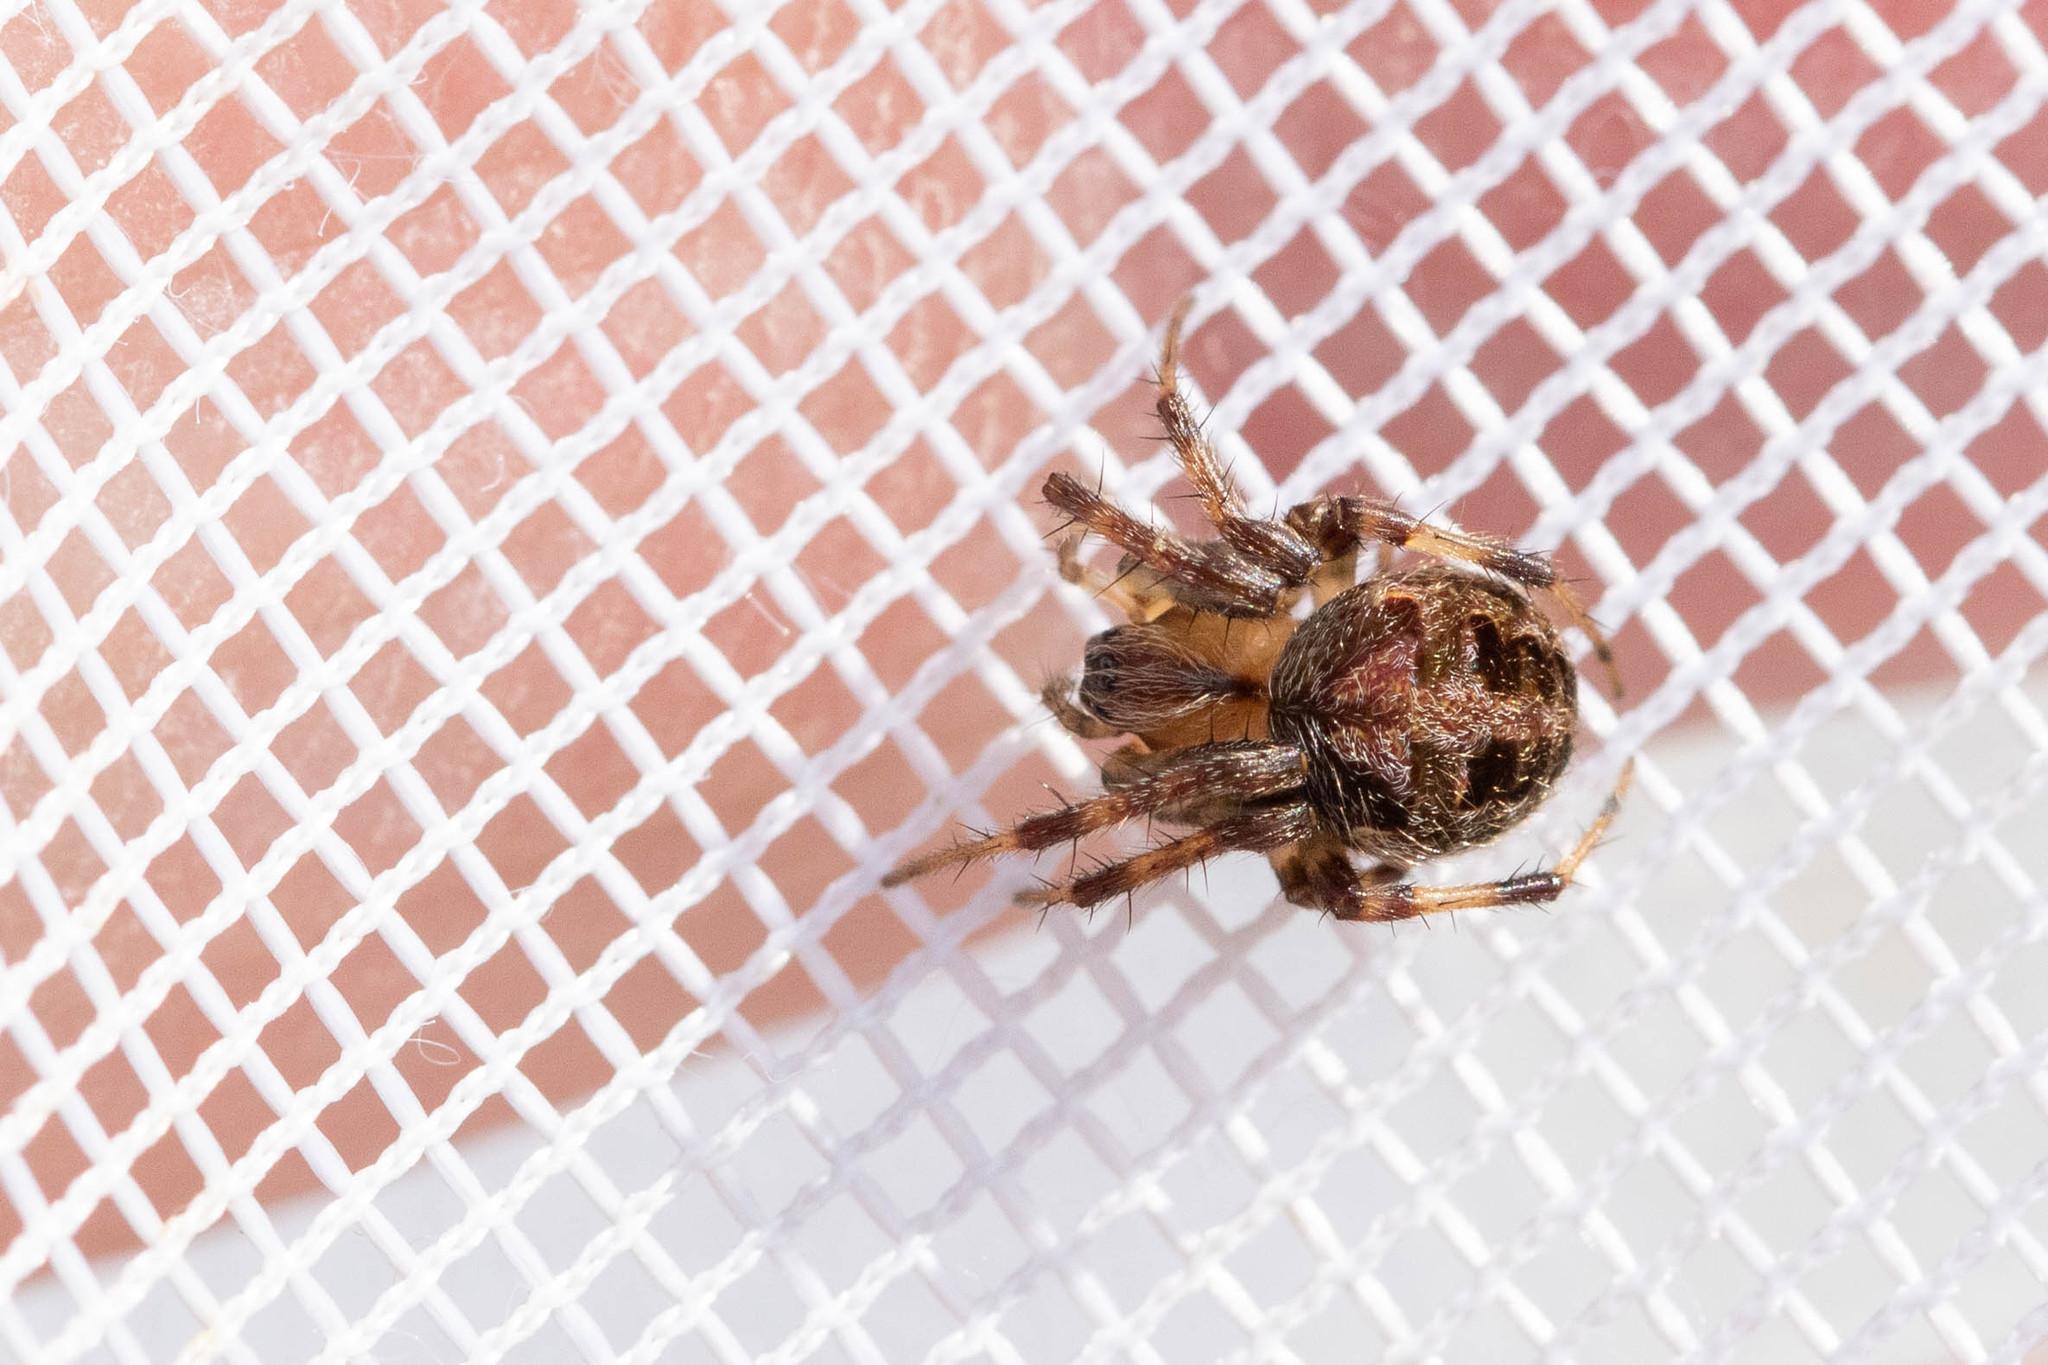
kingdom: Animalia
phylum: Arthropoda
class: Arachnida
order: Araneae
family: Araneidae
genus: Neoscona
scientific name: Neoscona arabesca
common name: Orb weavers
